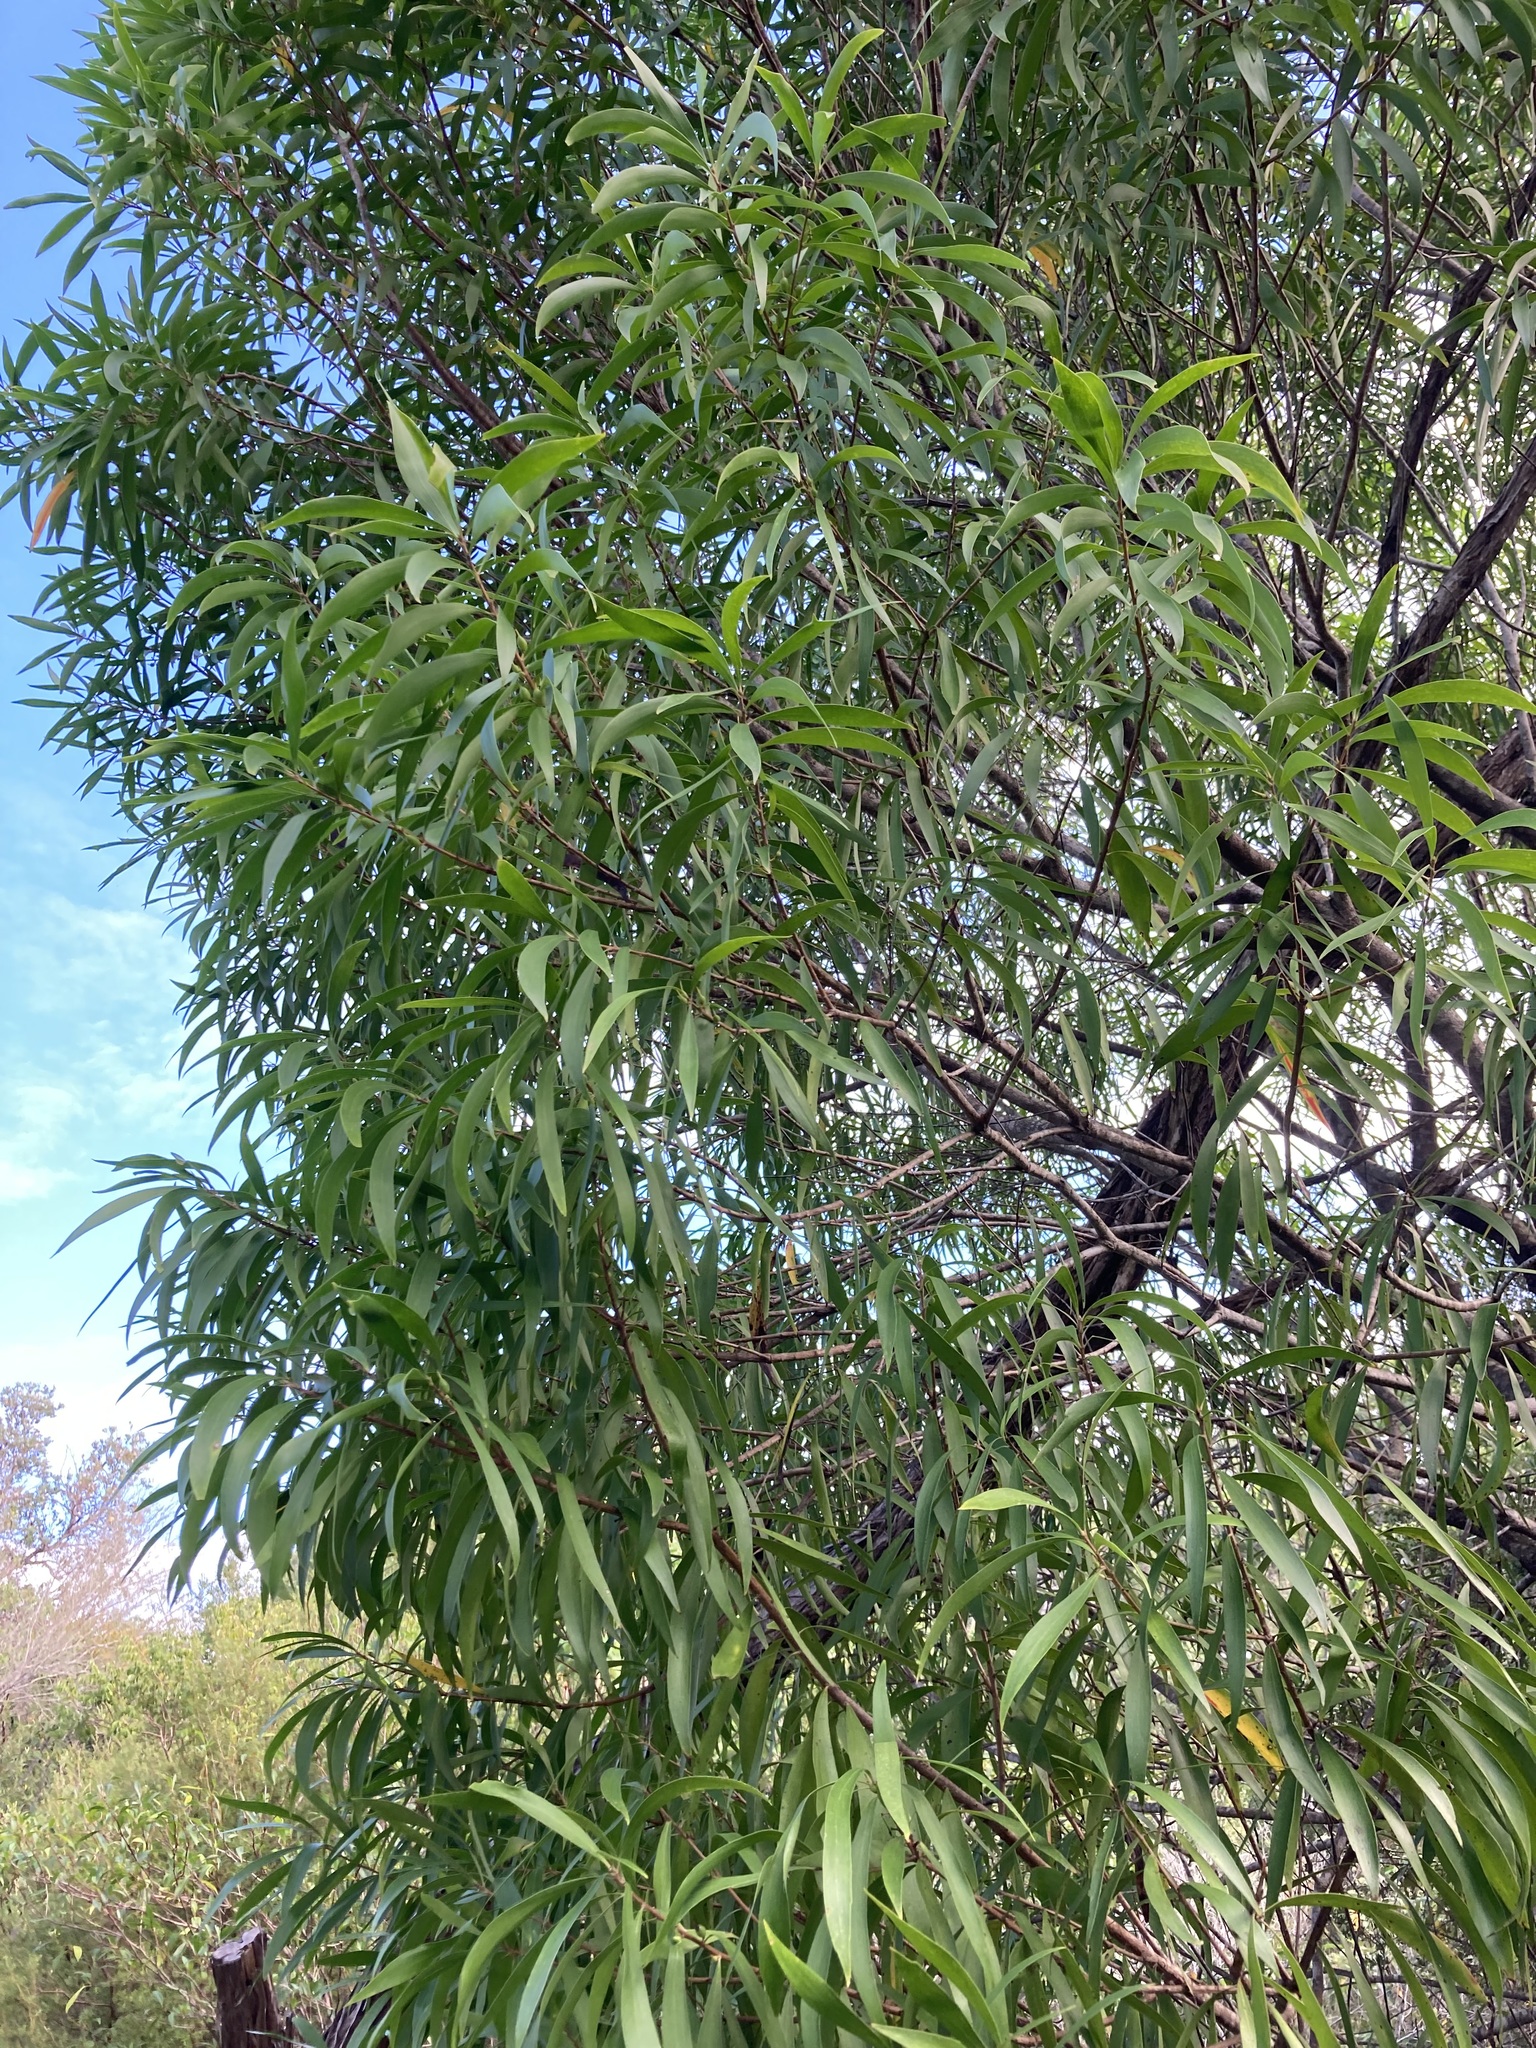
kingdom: Plantae
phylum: Tracheophyta
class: Magnoliopsida
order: Proteales
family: Proteaceae
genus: Persoonia
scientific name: Persoonia katerae
